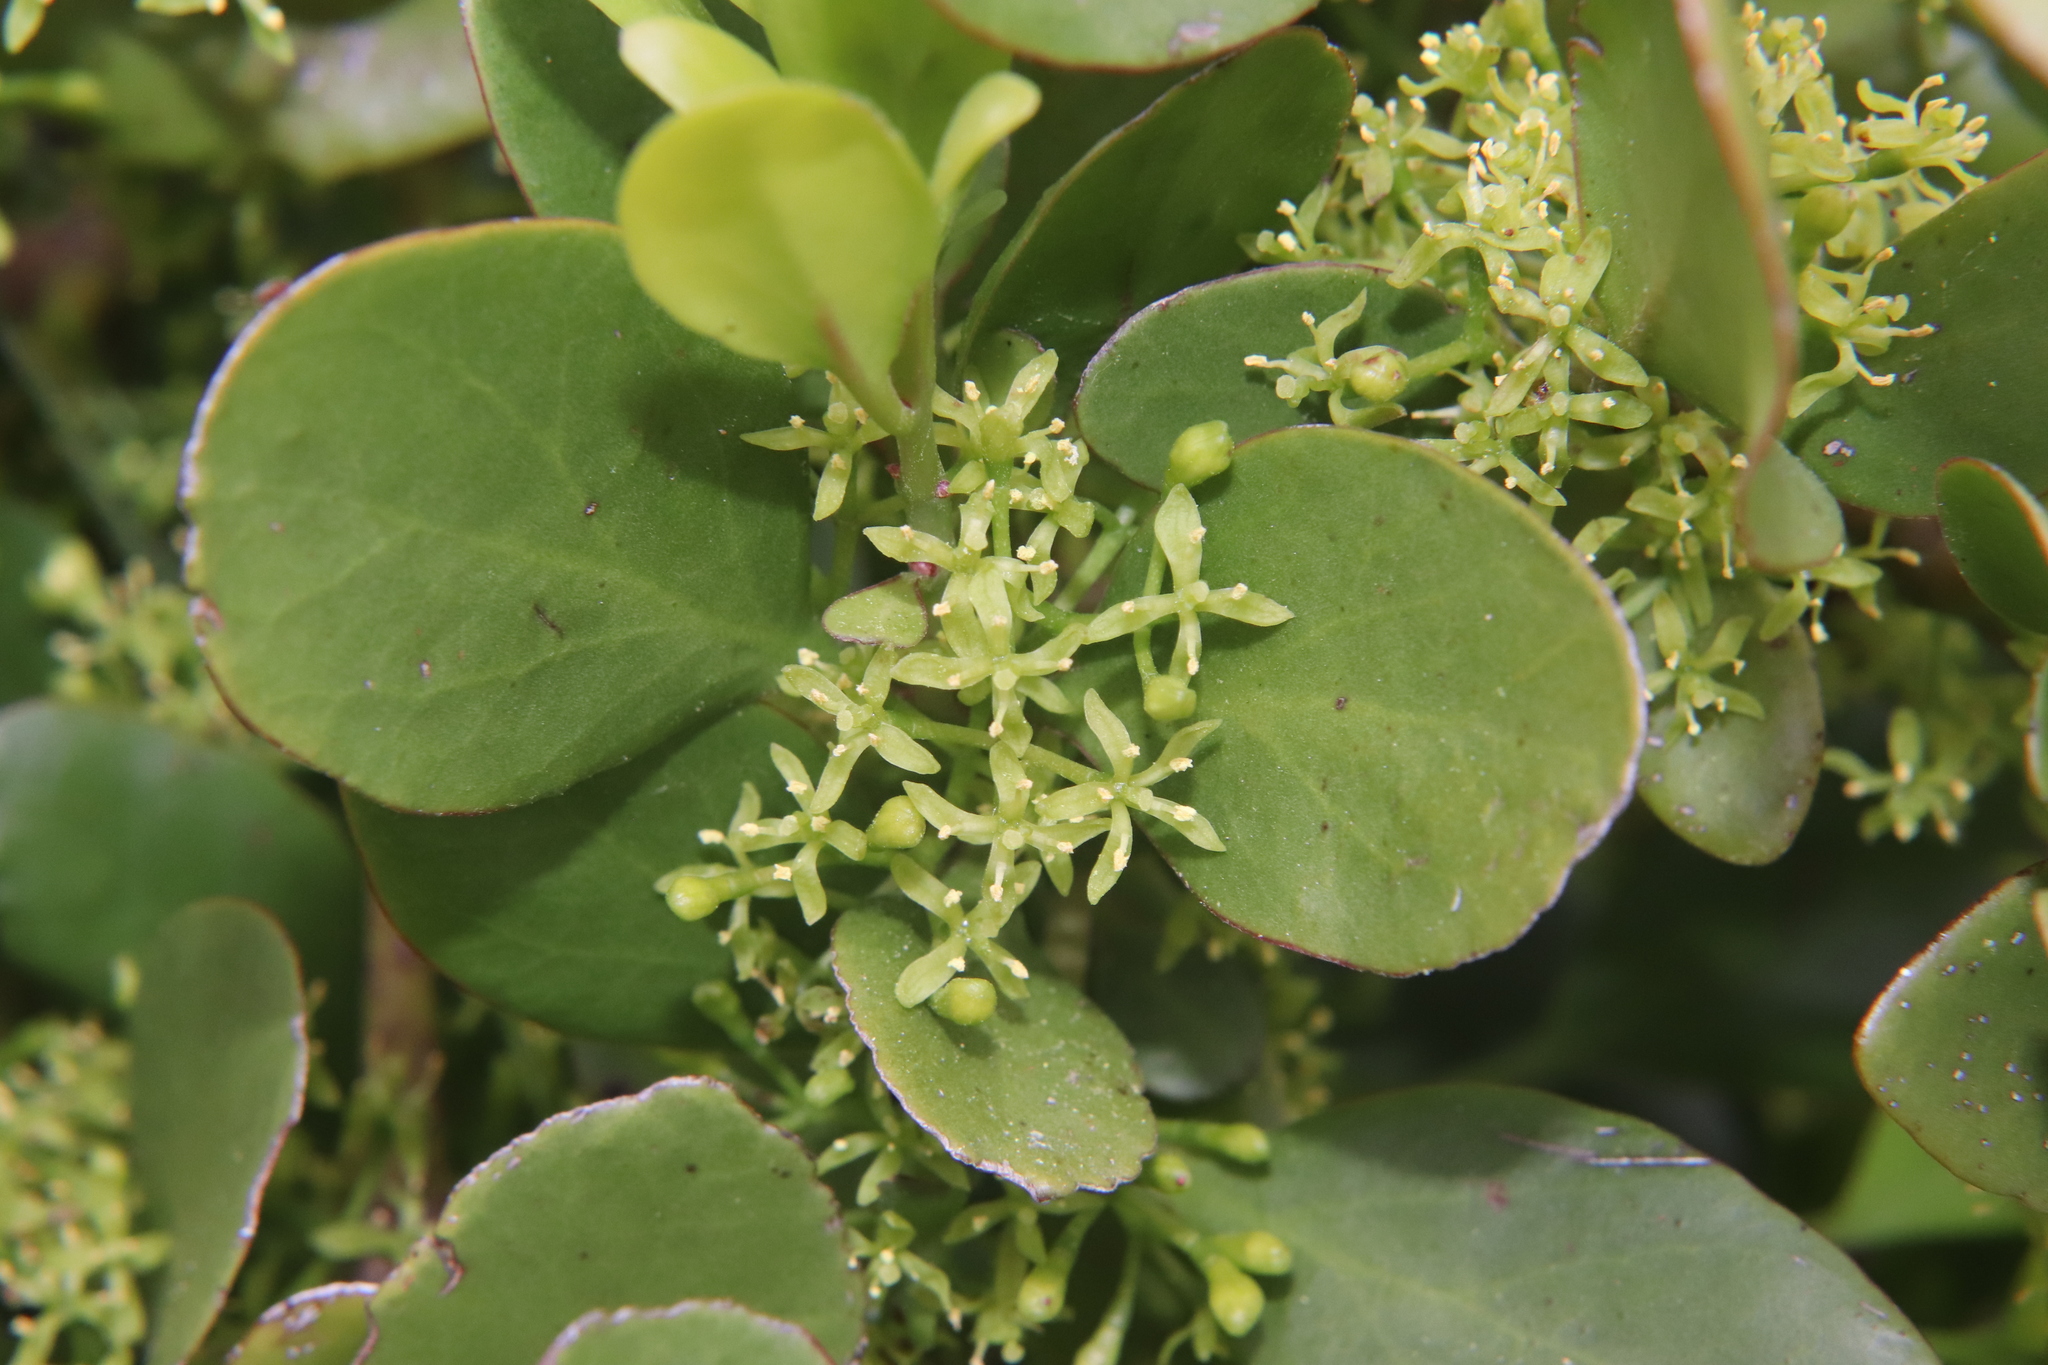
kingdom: Plantae
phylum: Tracheophyta
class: Magnoliopsida
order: Santalales
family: Loranthaceae
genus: Ileostylus
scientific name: Ileostylus micranthus
